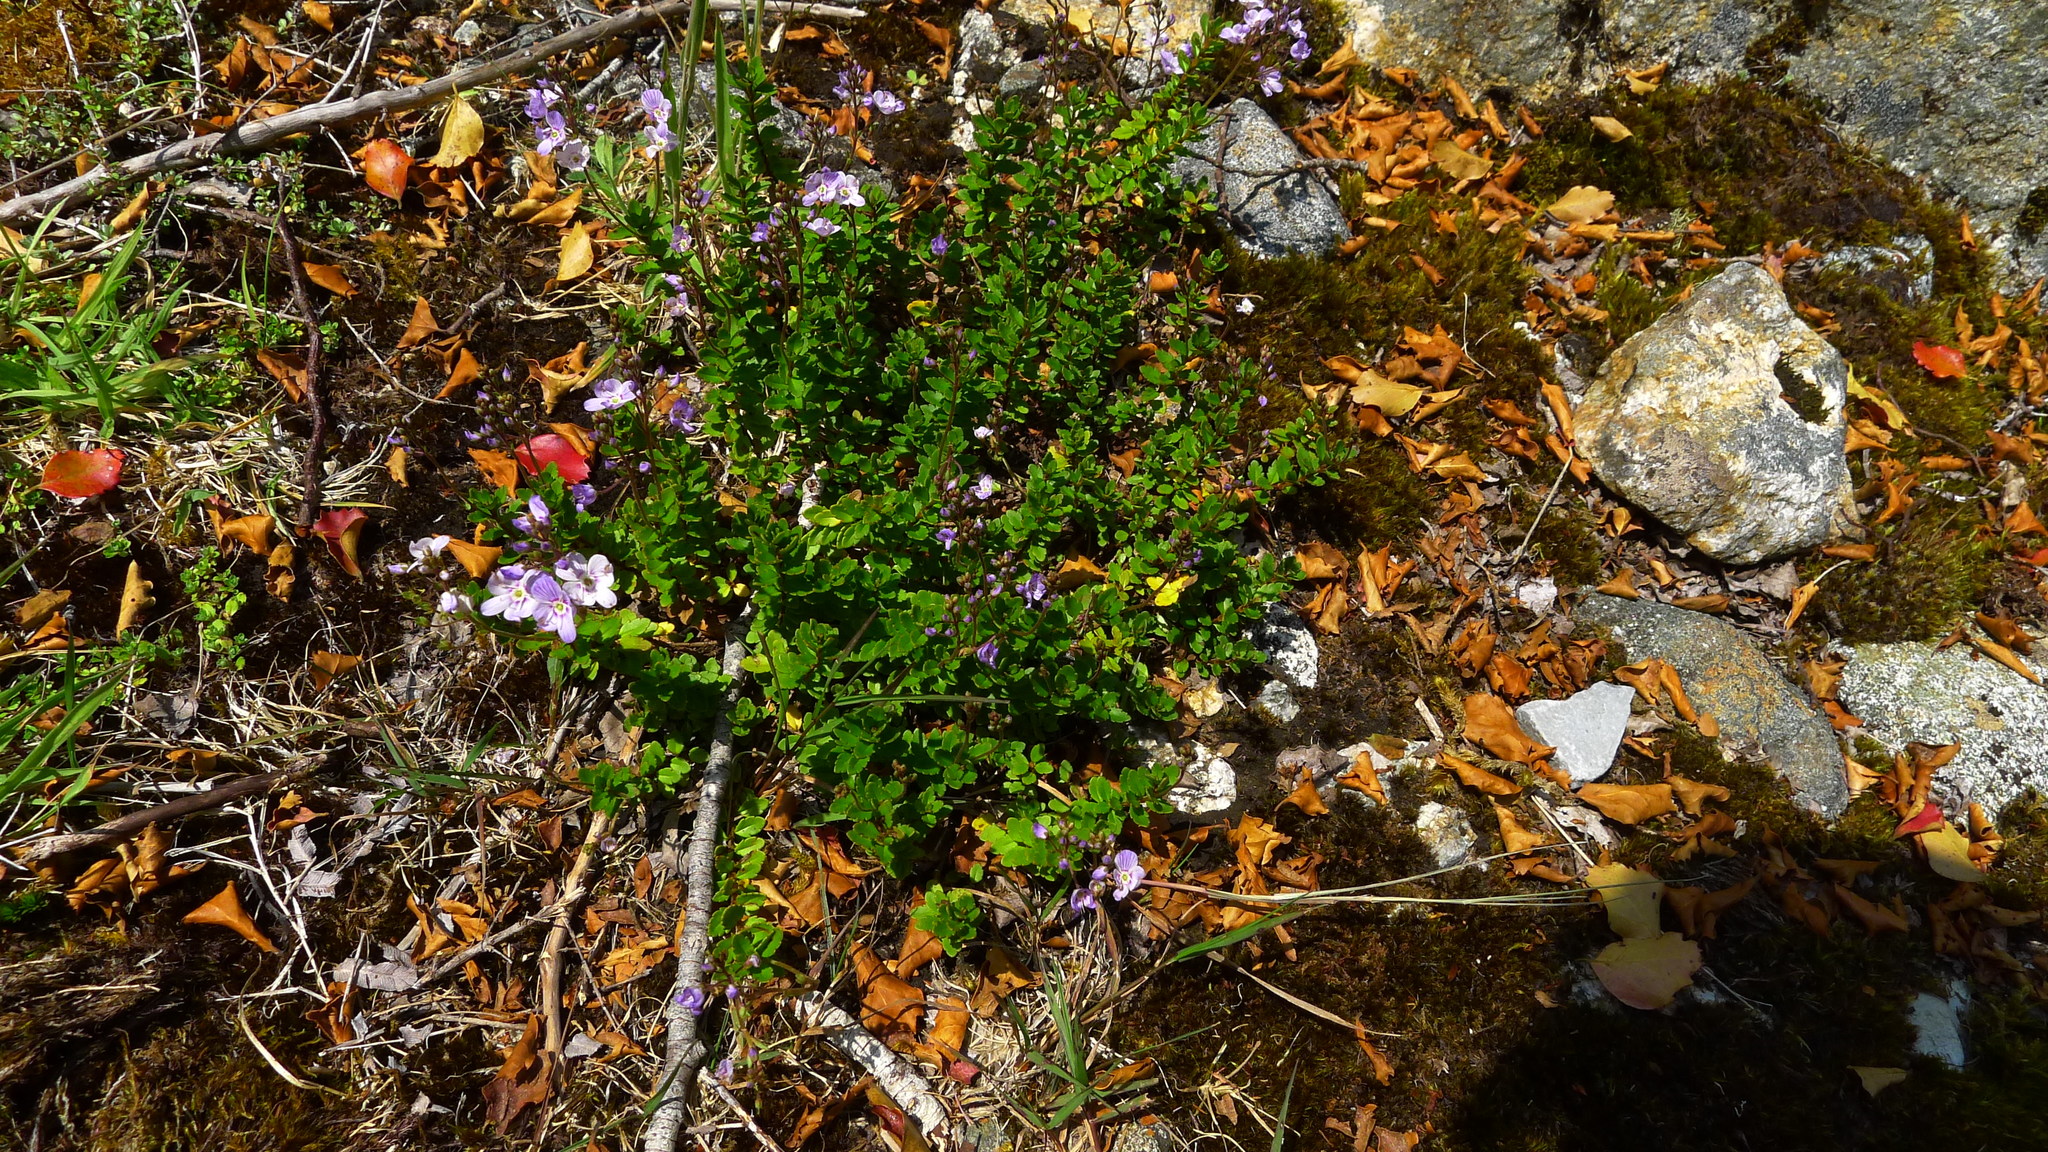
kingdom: Plantae
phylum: Tracheophyta
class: Magnoliopsida
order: Lamiales
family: Plantaginaceae
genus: Veronica
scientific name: Veronica lyallii
